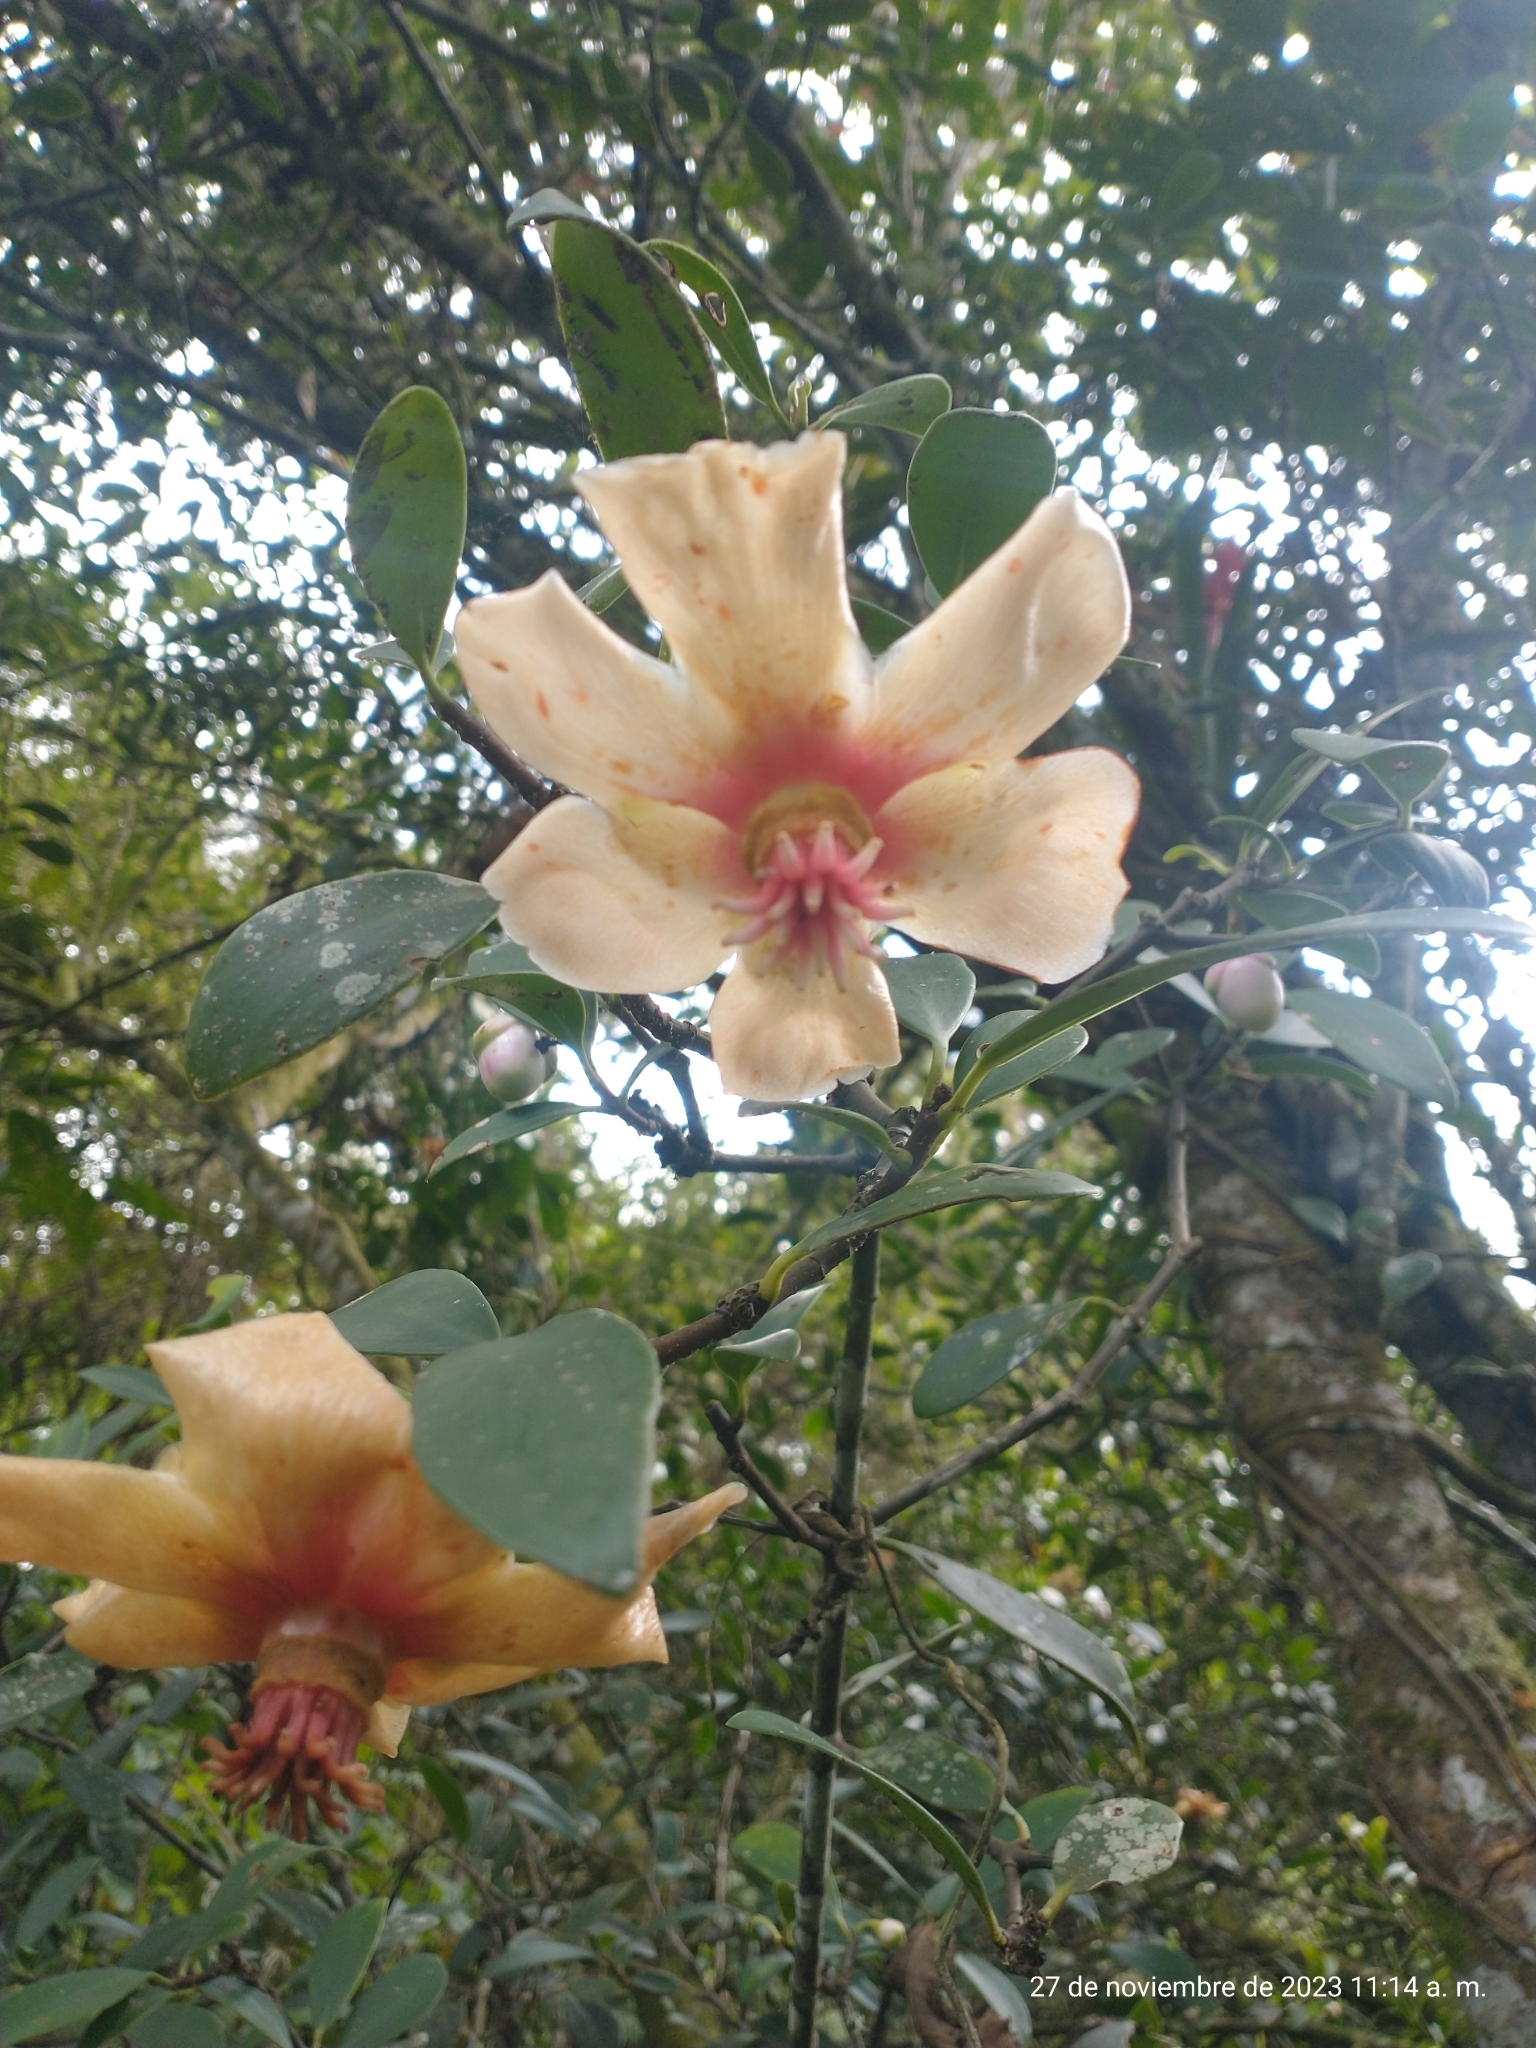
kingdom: Plantae
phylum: Tracheophyta
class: Magnoliopsida
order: Malpighiales
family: Clusiaceae
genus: Clusia
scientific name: Clusia orthoneura
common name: Porcelain-flower
